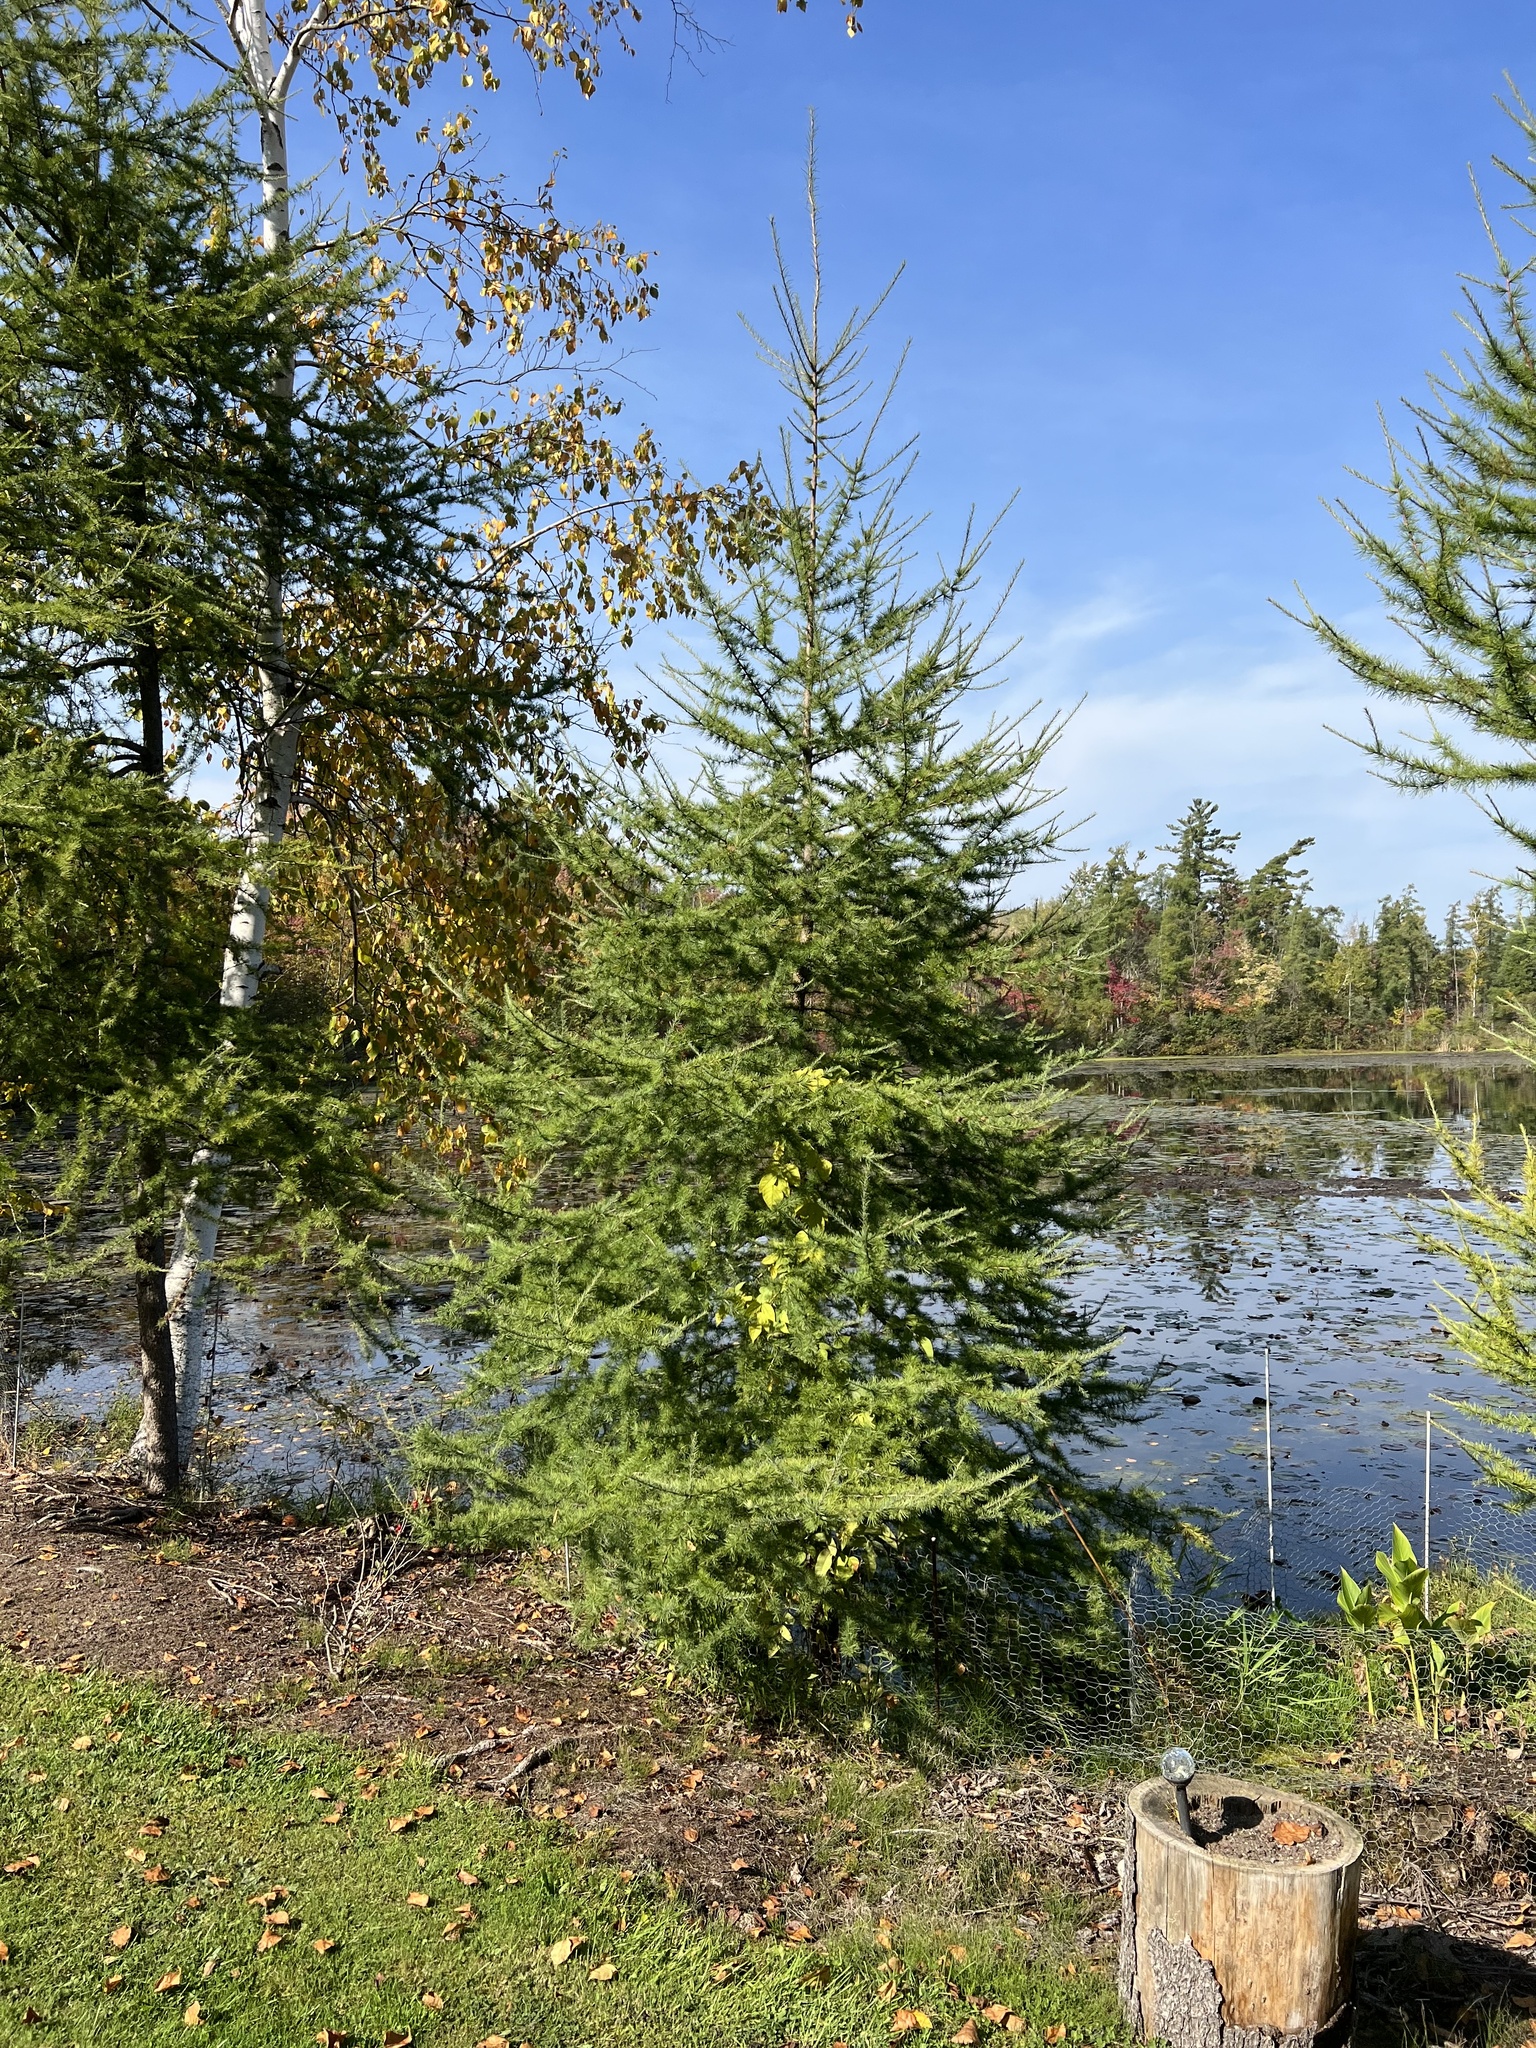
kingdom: Plantae
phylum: Tracheophyta
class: Pinopsida
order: Pinales
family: Pinaceae
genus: Larix
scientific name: Larix laricina
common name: American larch
